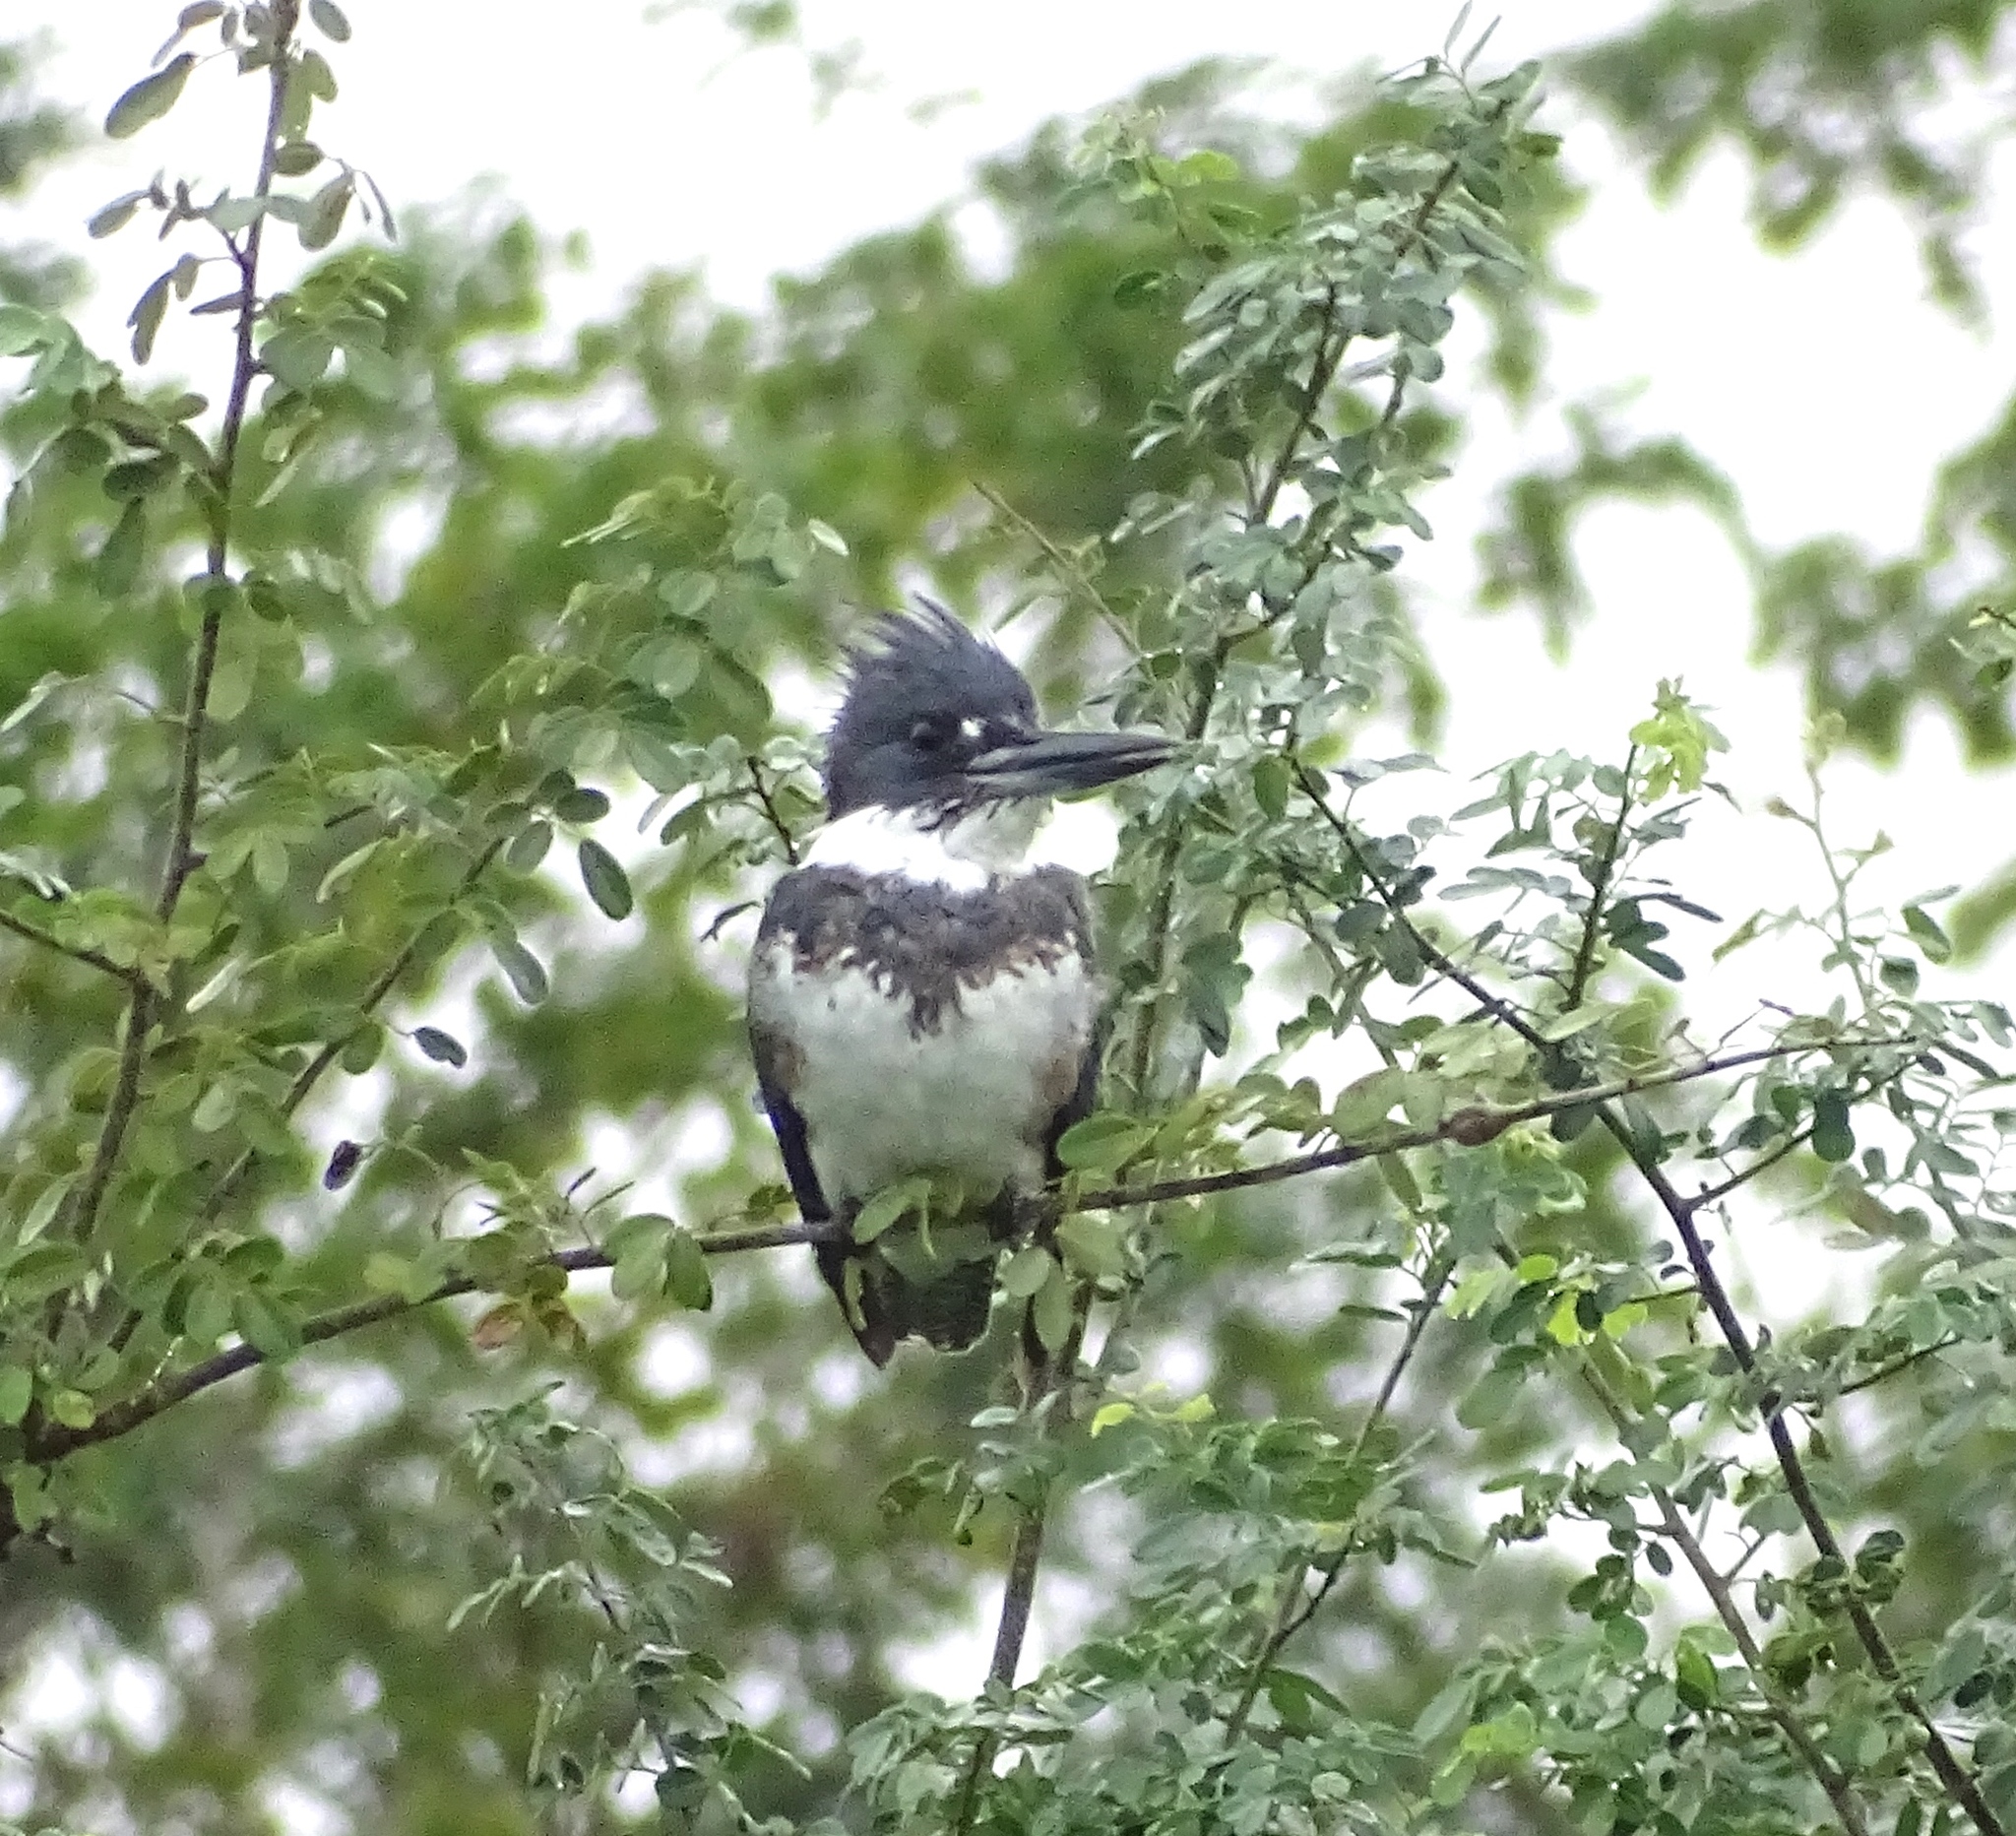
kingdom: Animalia
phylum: Chordata
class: Aves
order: Coraciiformes
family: Alcedinidae
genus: Megaceryle
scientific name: Megaceryle alcyon
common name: Belted kingfisher
